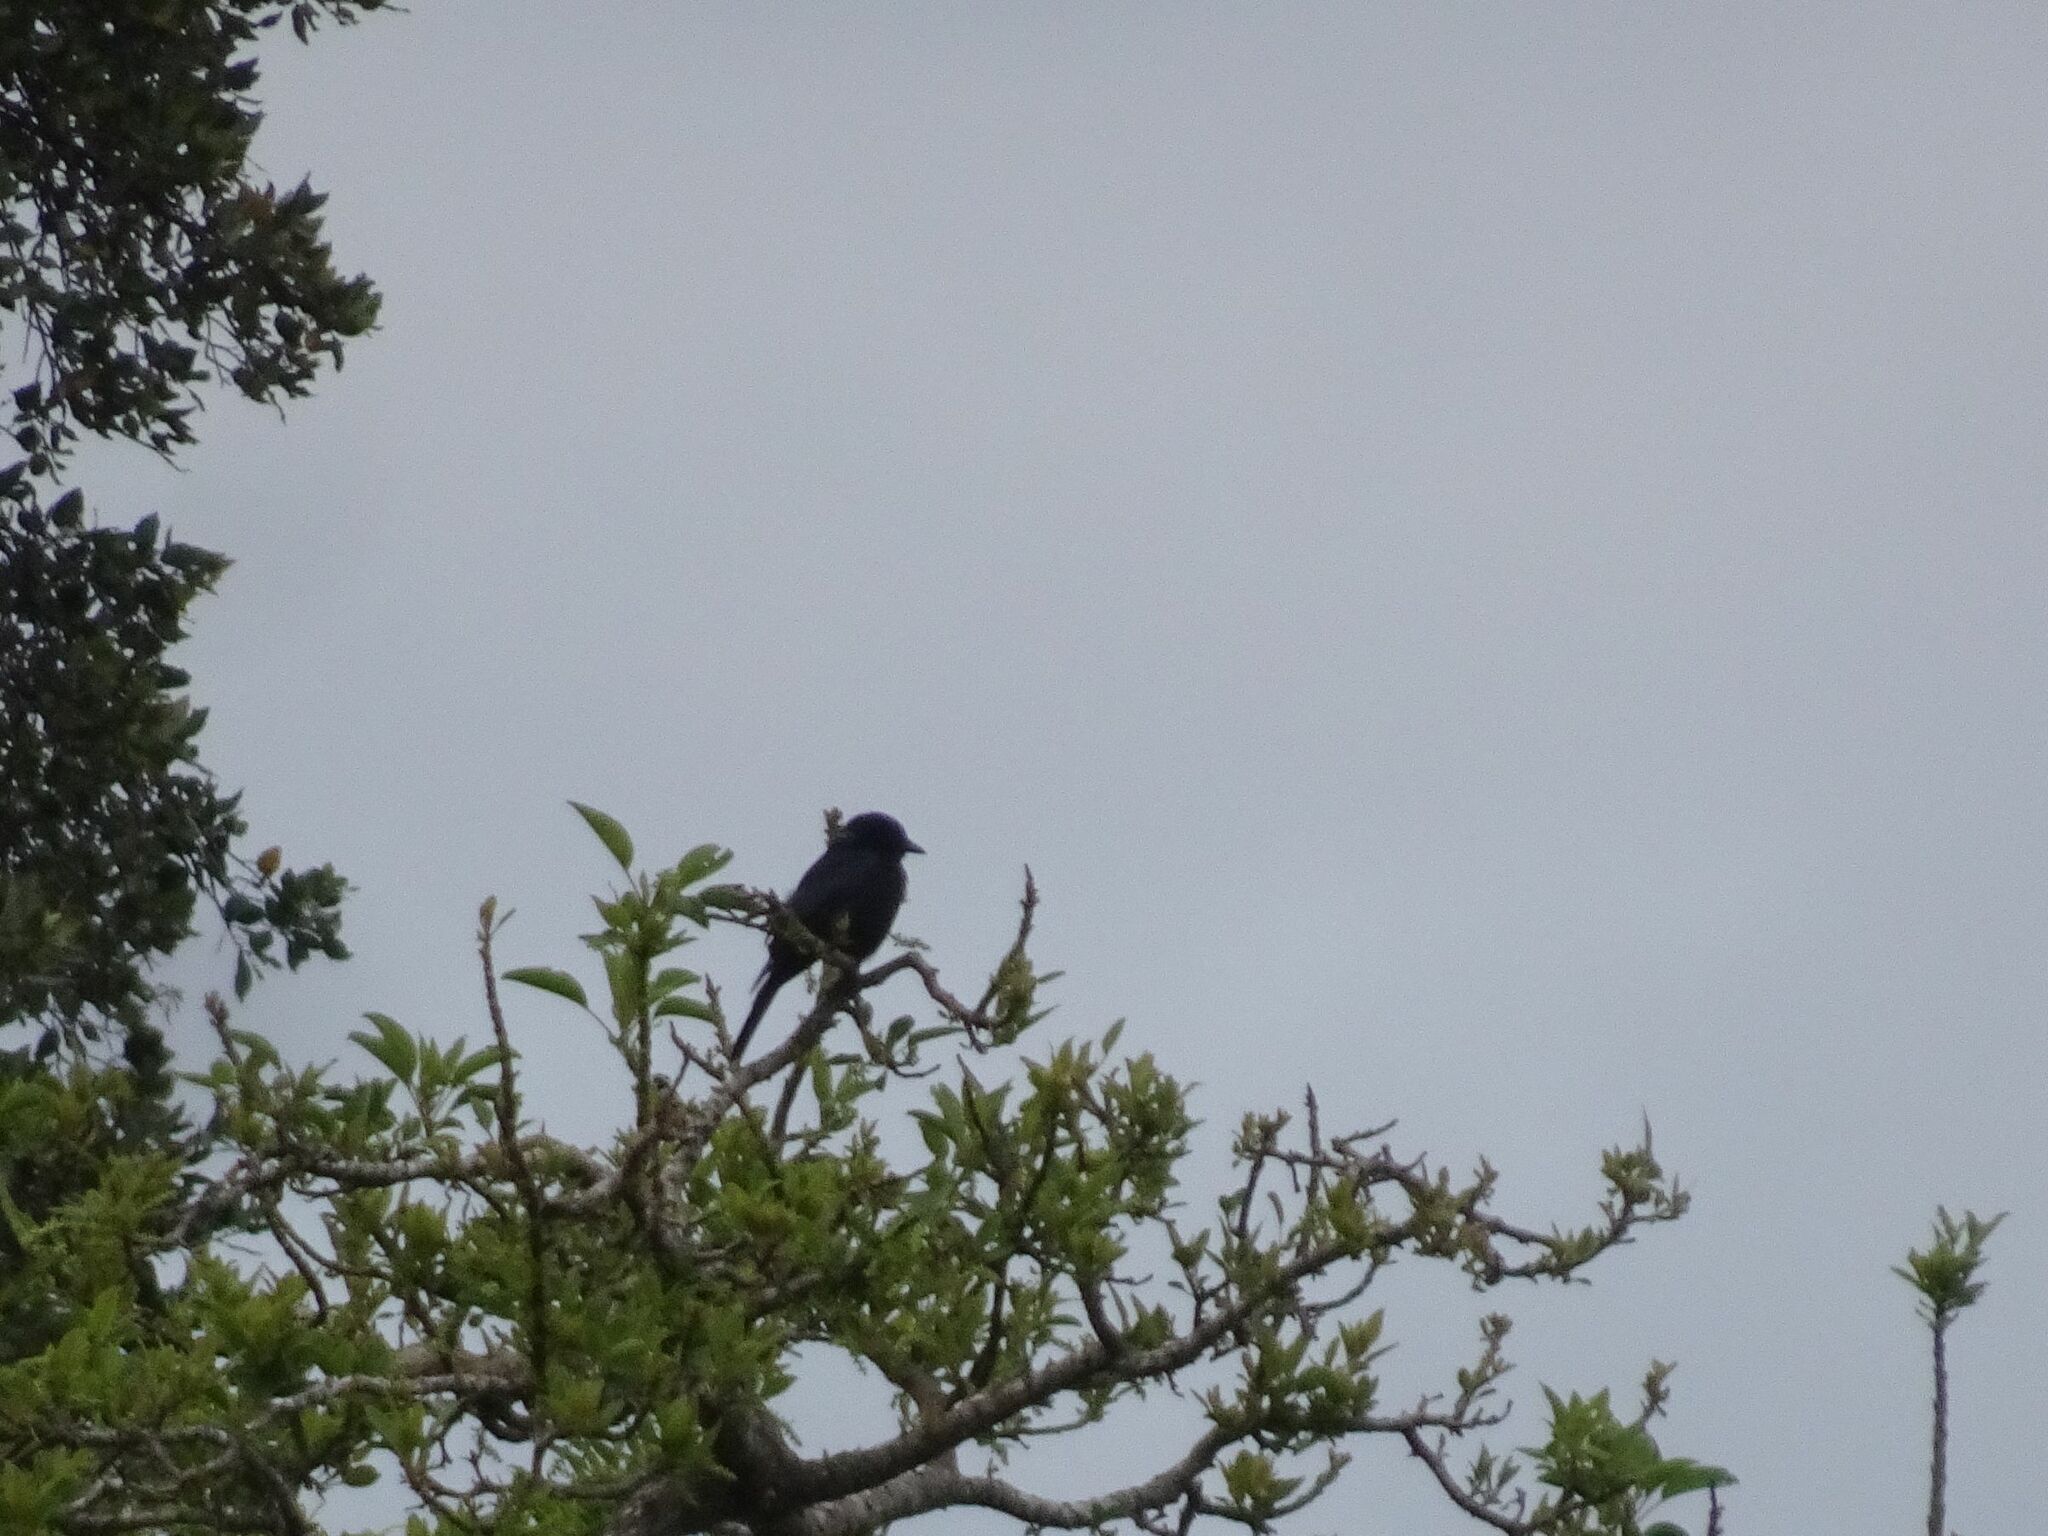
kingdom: Animalia
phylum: Chordata
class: Aves
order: Passeriformes
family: Dicruridae
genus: Dicrurus
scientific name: Dicrurus adsimilis
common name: Fork-tailed drongo
